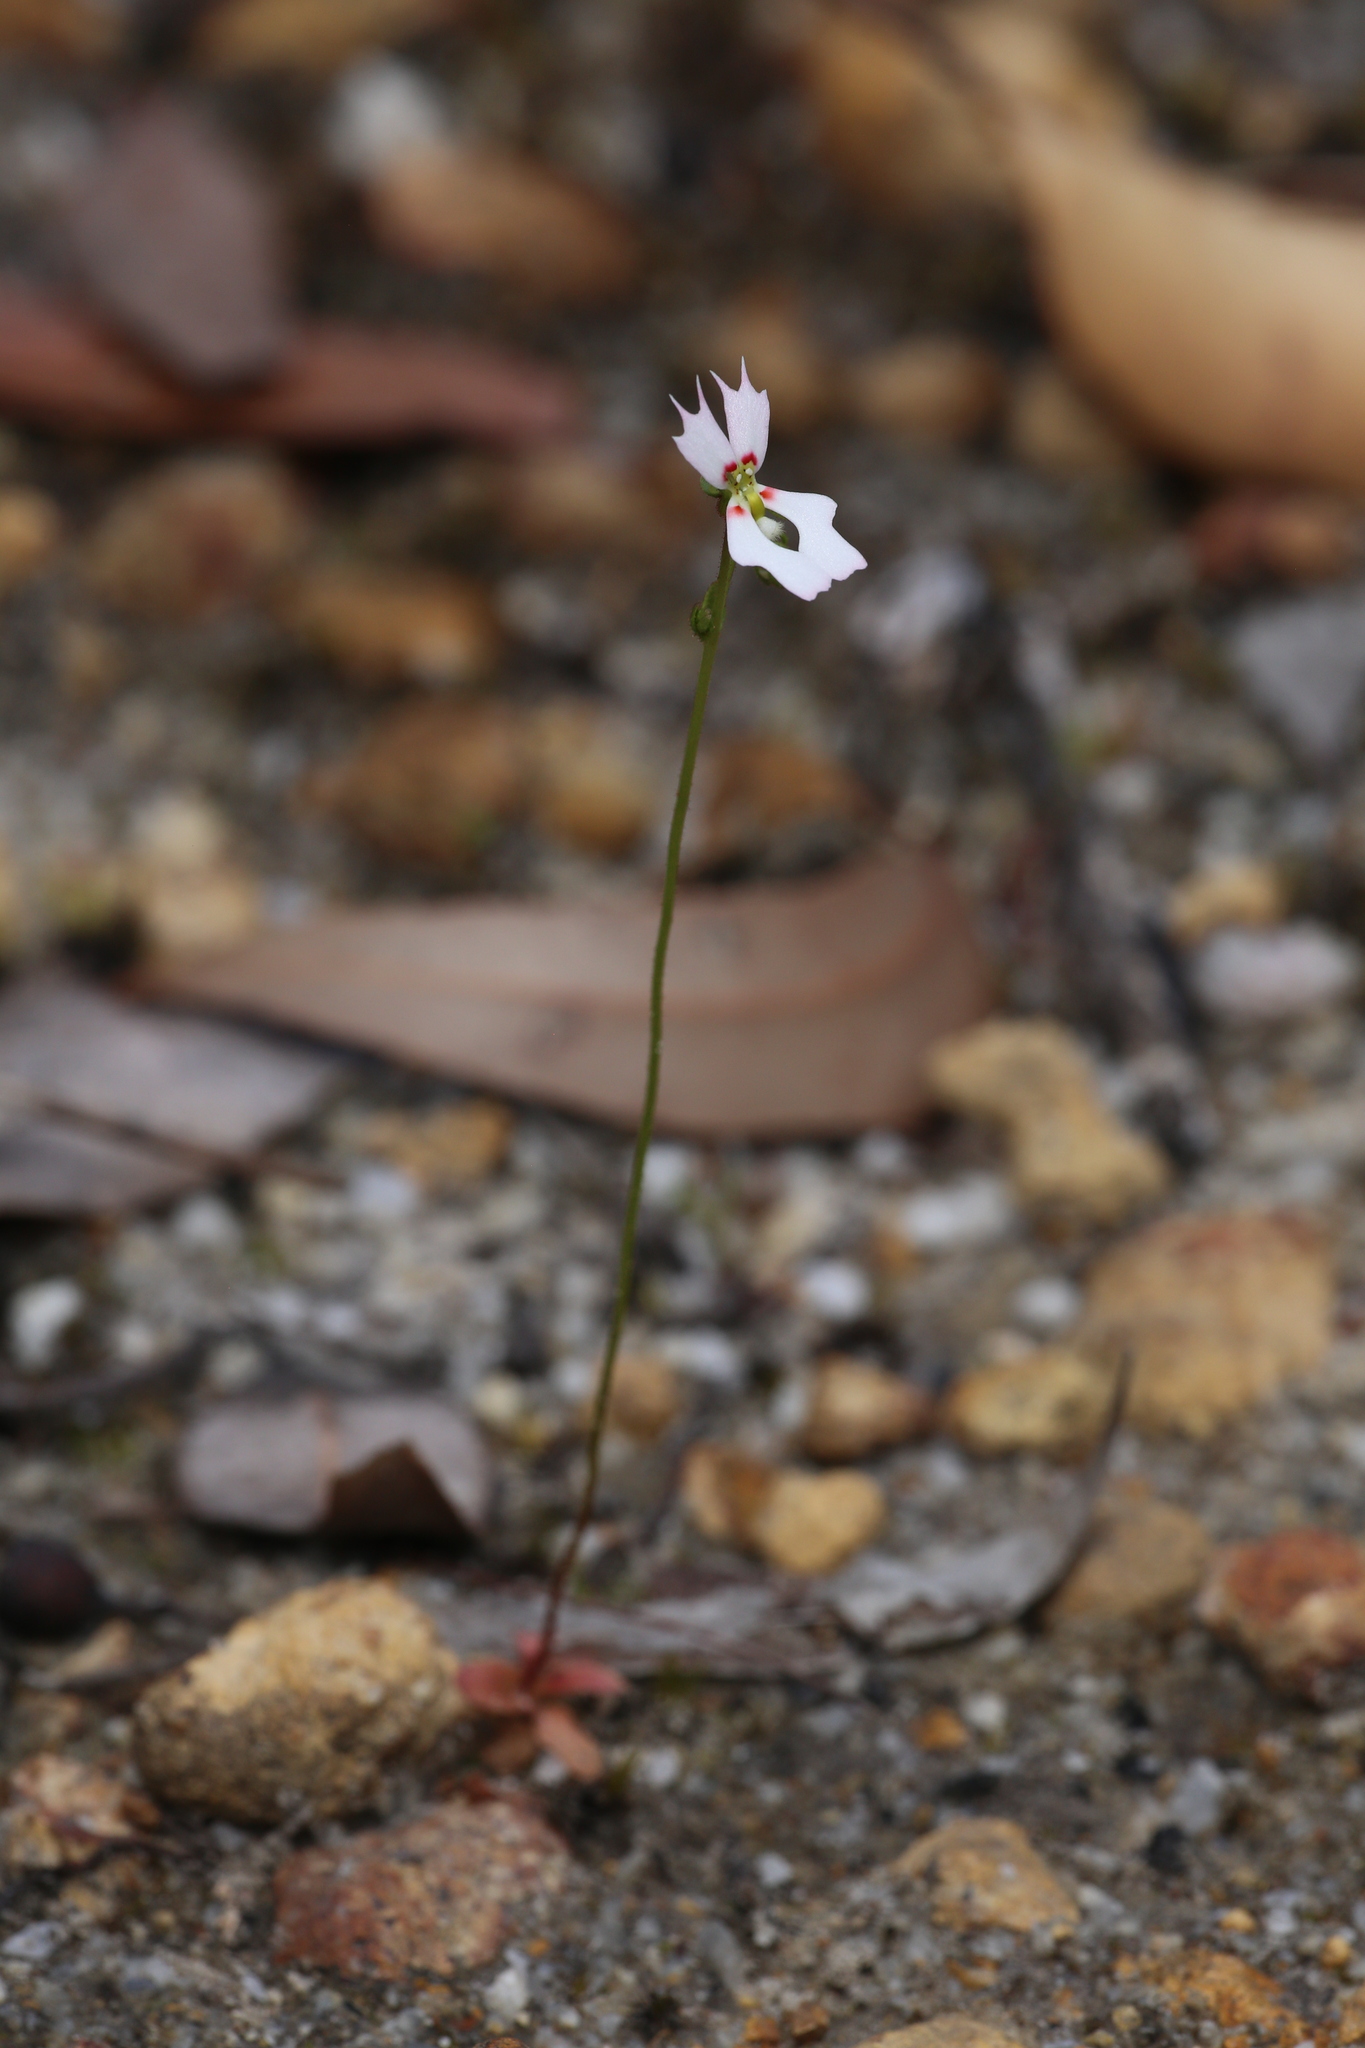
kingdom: Plantae
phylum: Tracheophyta
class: Magnoliopsida
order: Asterales
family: Stylidiaceae
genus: Stylidium
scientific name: Stylidium androsaceum
